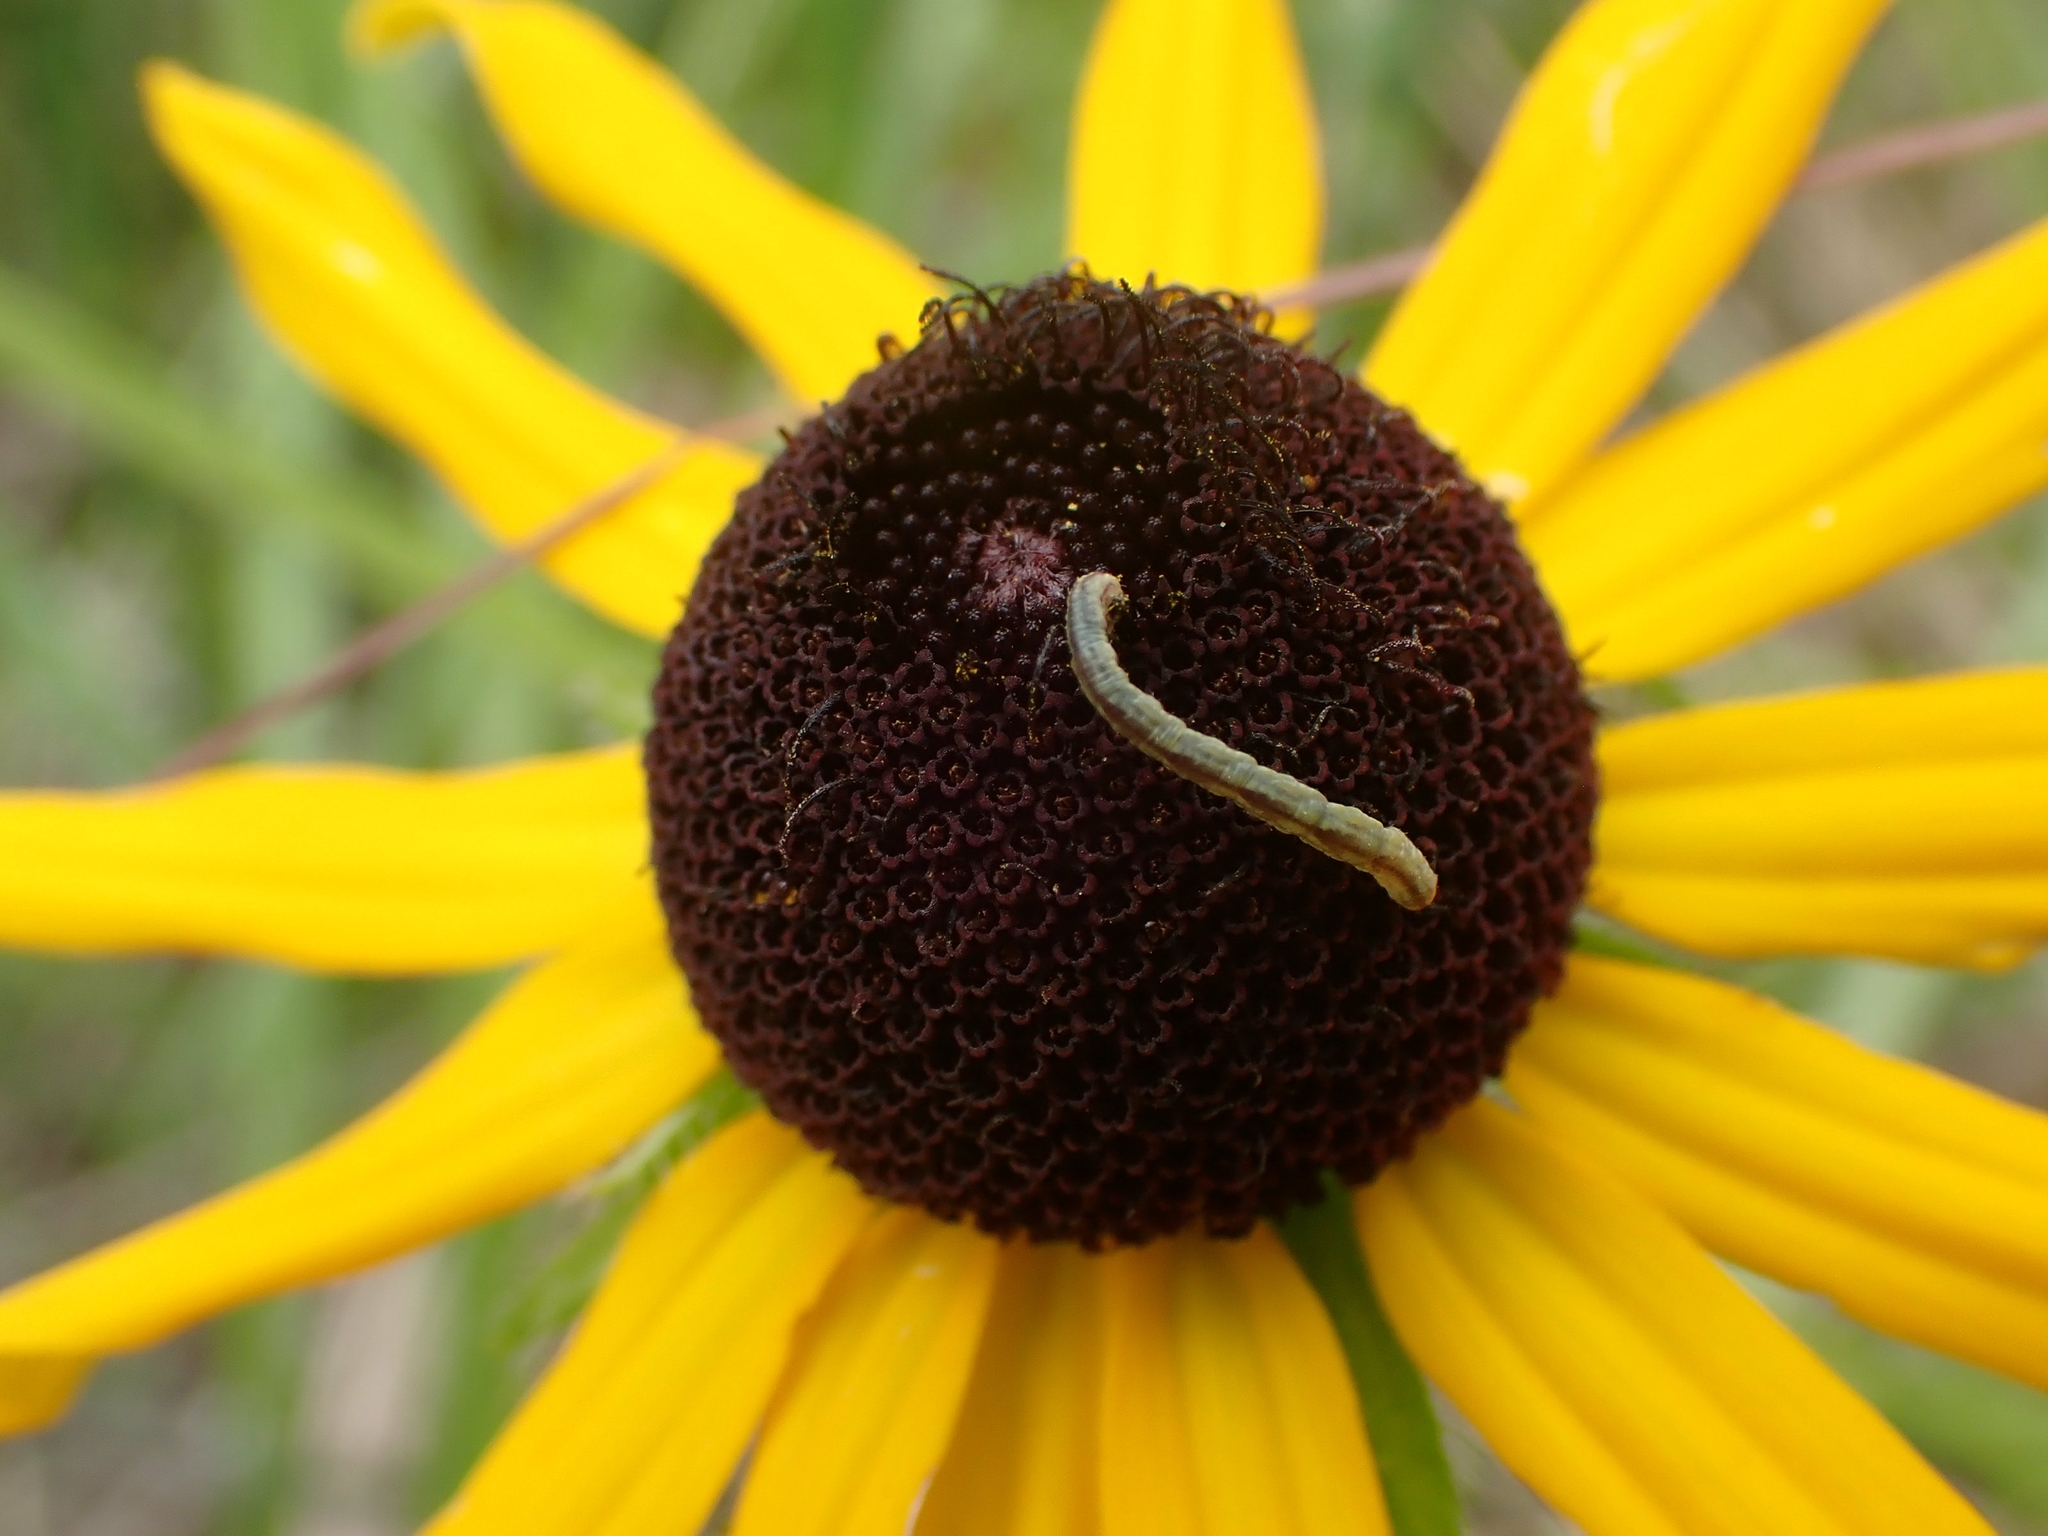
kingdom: Plantae
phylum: Tracheophyta
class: Magnoliopsida
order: Asterales
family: Asteraceae
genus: Rudbeckia
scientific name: Rudbeckia hirta
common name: Black-eyed-susan
